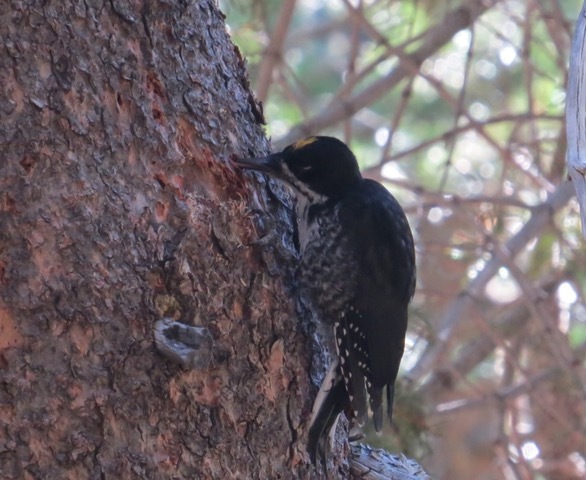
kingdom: Animalia
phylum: Chordata
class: Aves
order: Piciformes
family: Picidae
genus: Picoides
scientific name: Picoides arcticus
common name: Black-backed woodpecker
